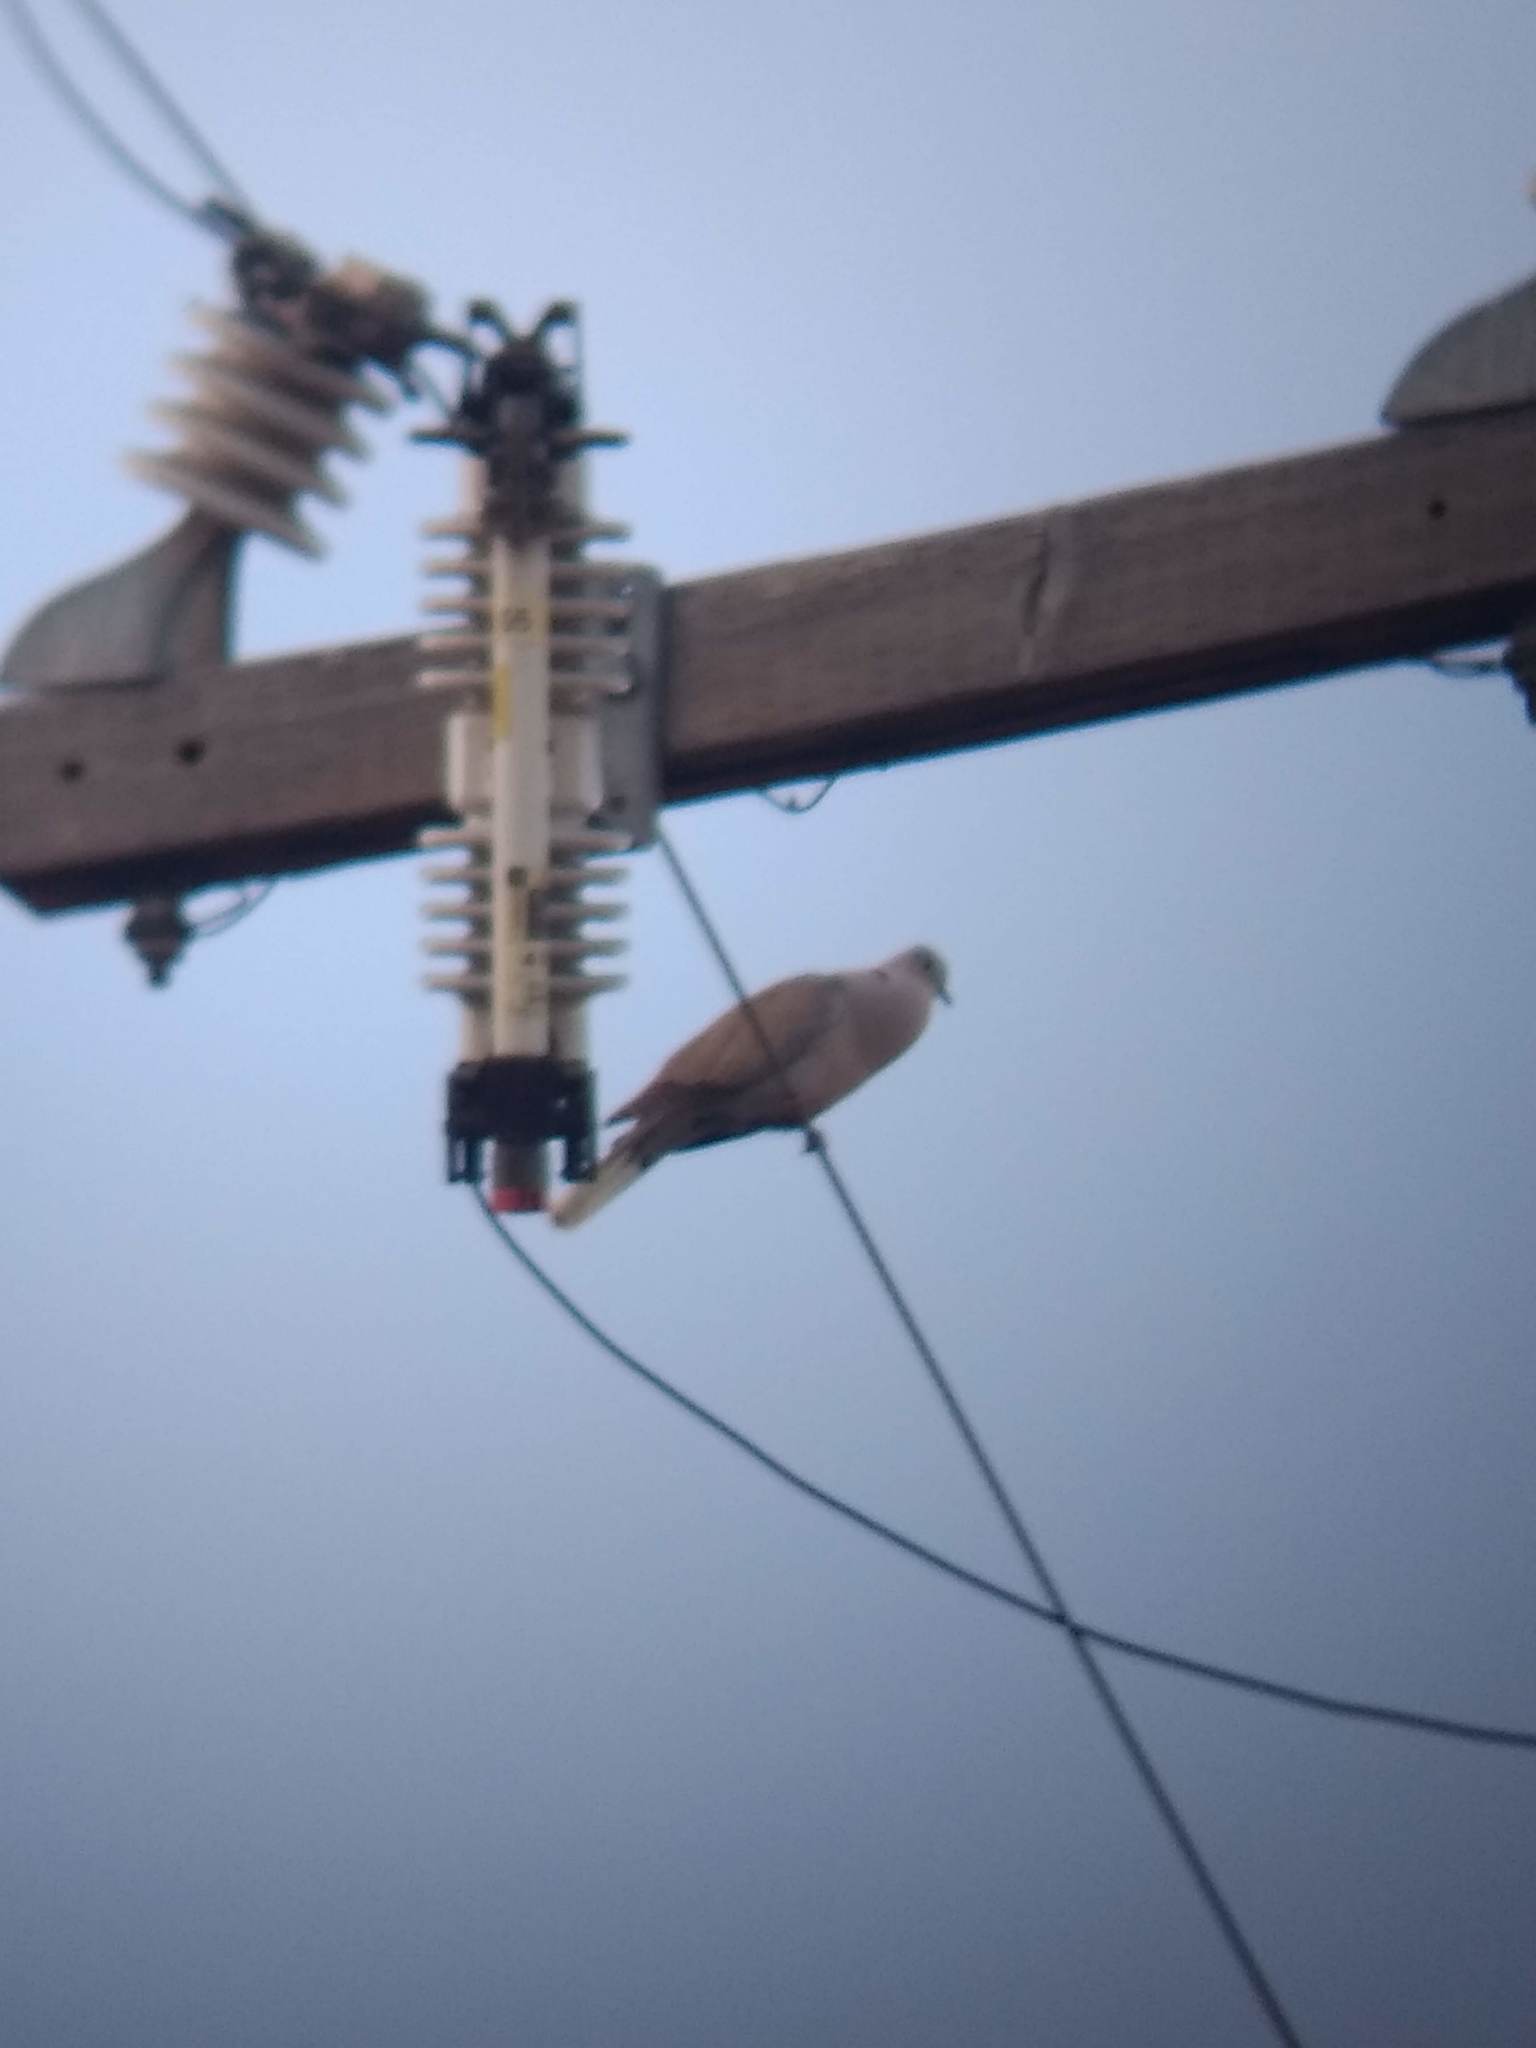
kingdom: Animalia
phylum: Chordata
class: Aves
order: Columbiformes
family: Columbidae
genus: Streptopelia
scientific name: Streptopelia decaocto
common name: Eurasian collared dove
